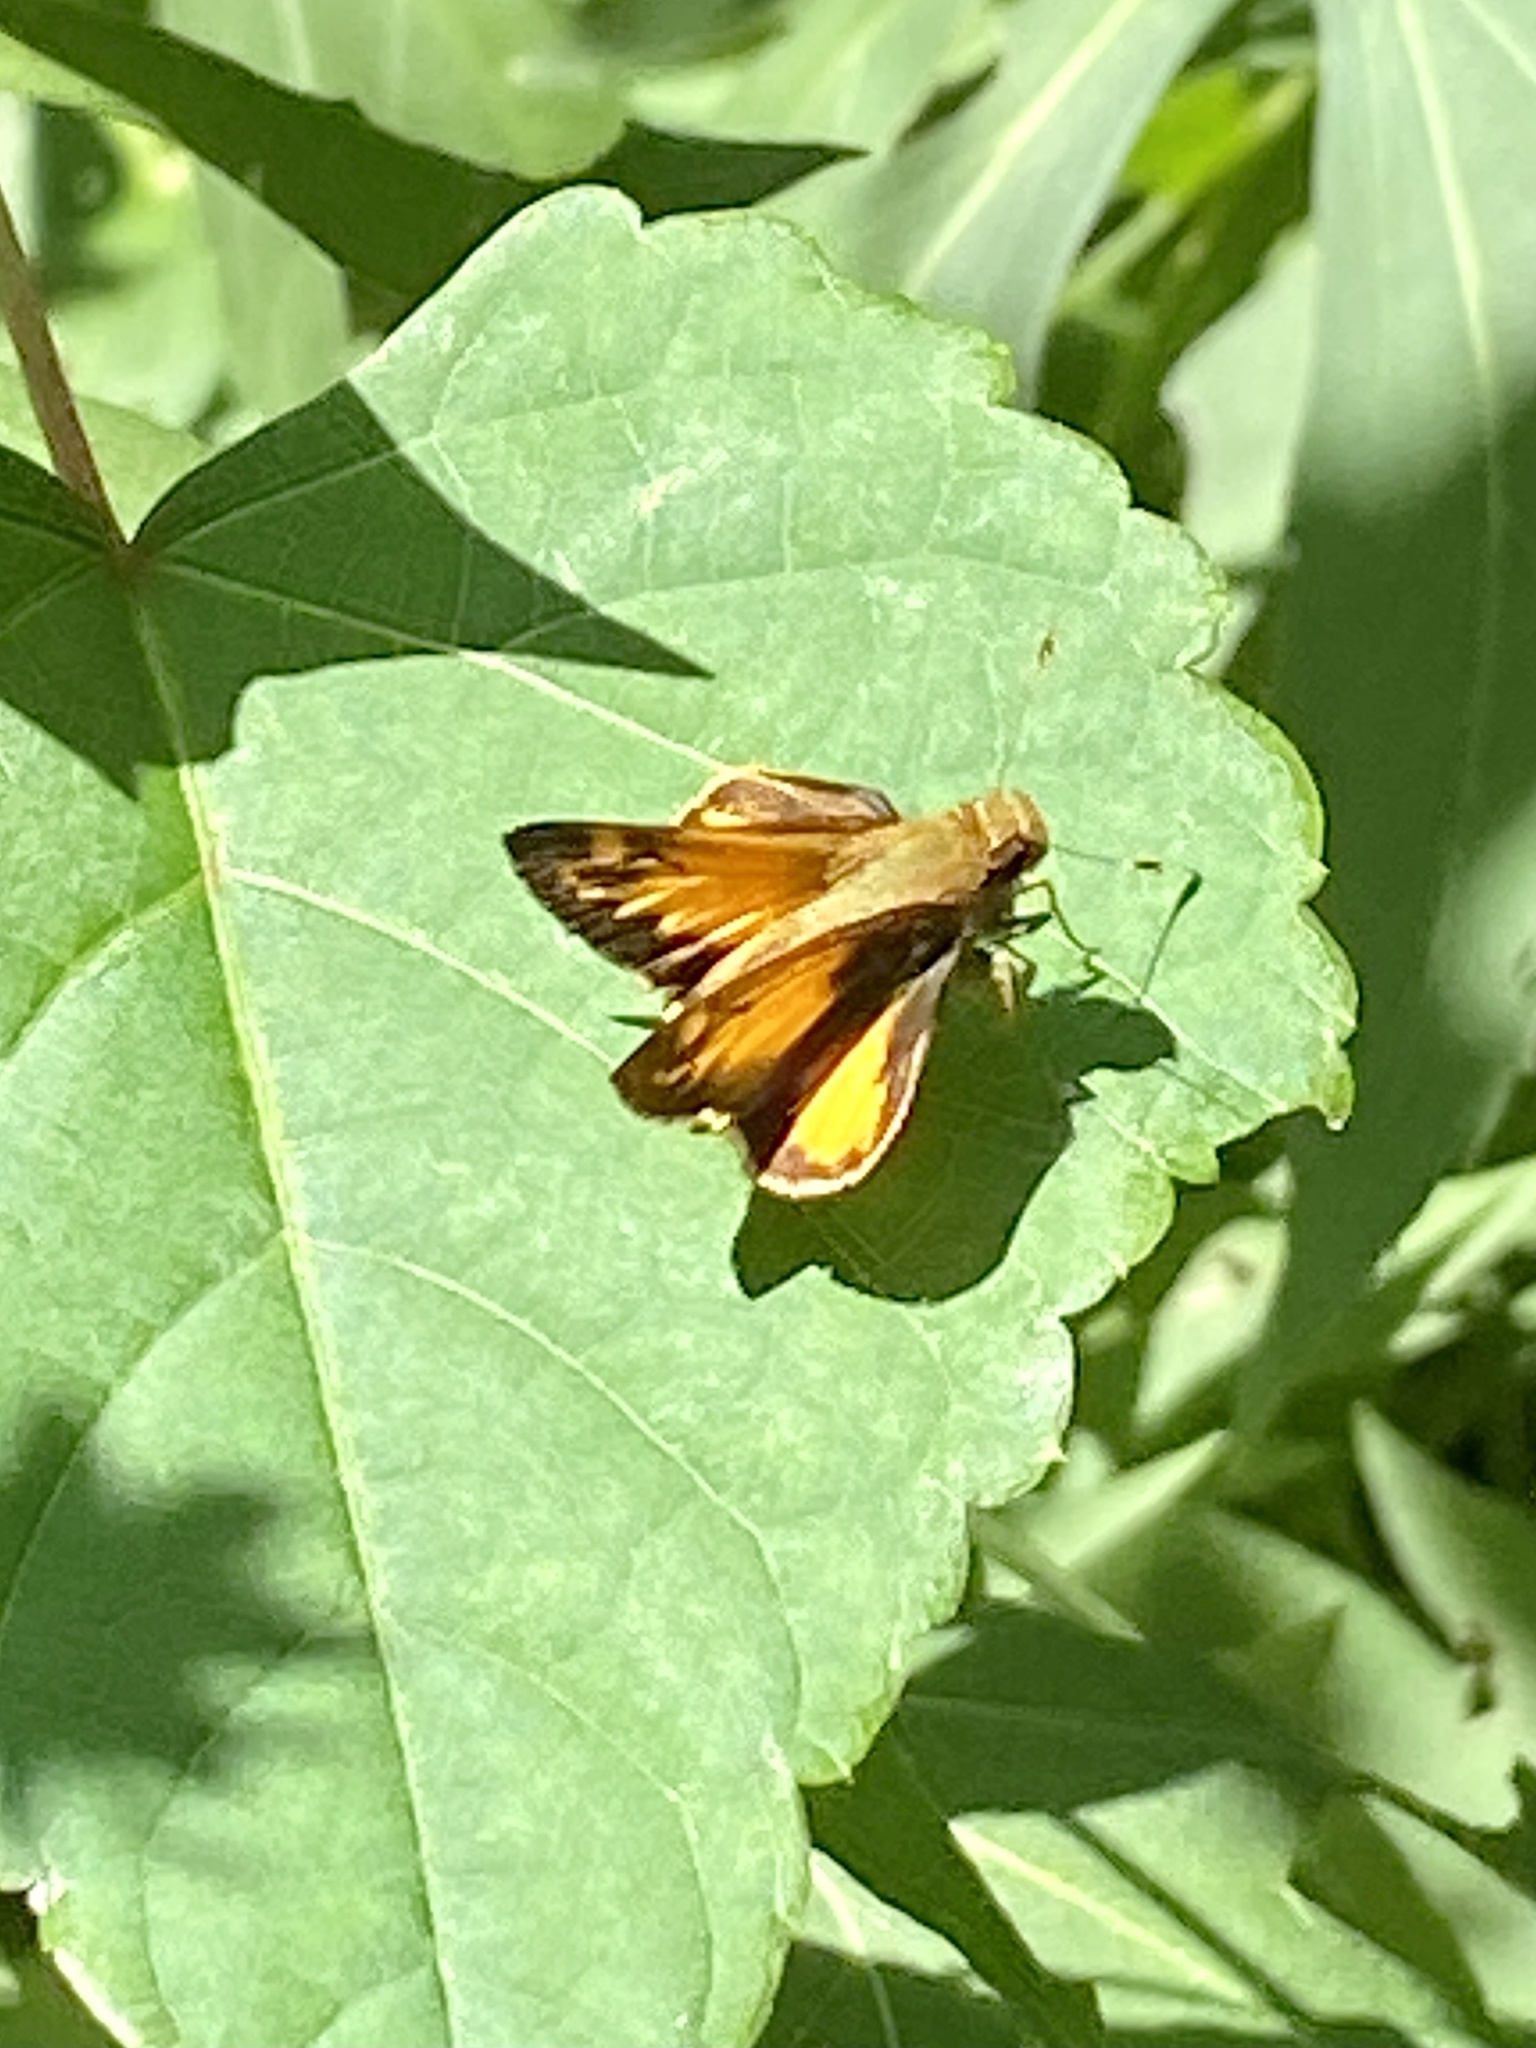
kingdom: Animalia
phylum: Arthropoda
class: Insecta
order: Lepidoptera
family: Hesperiidae
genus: Lon
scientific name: Lon zabulon
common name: Zabulon skipper
